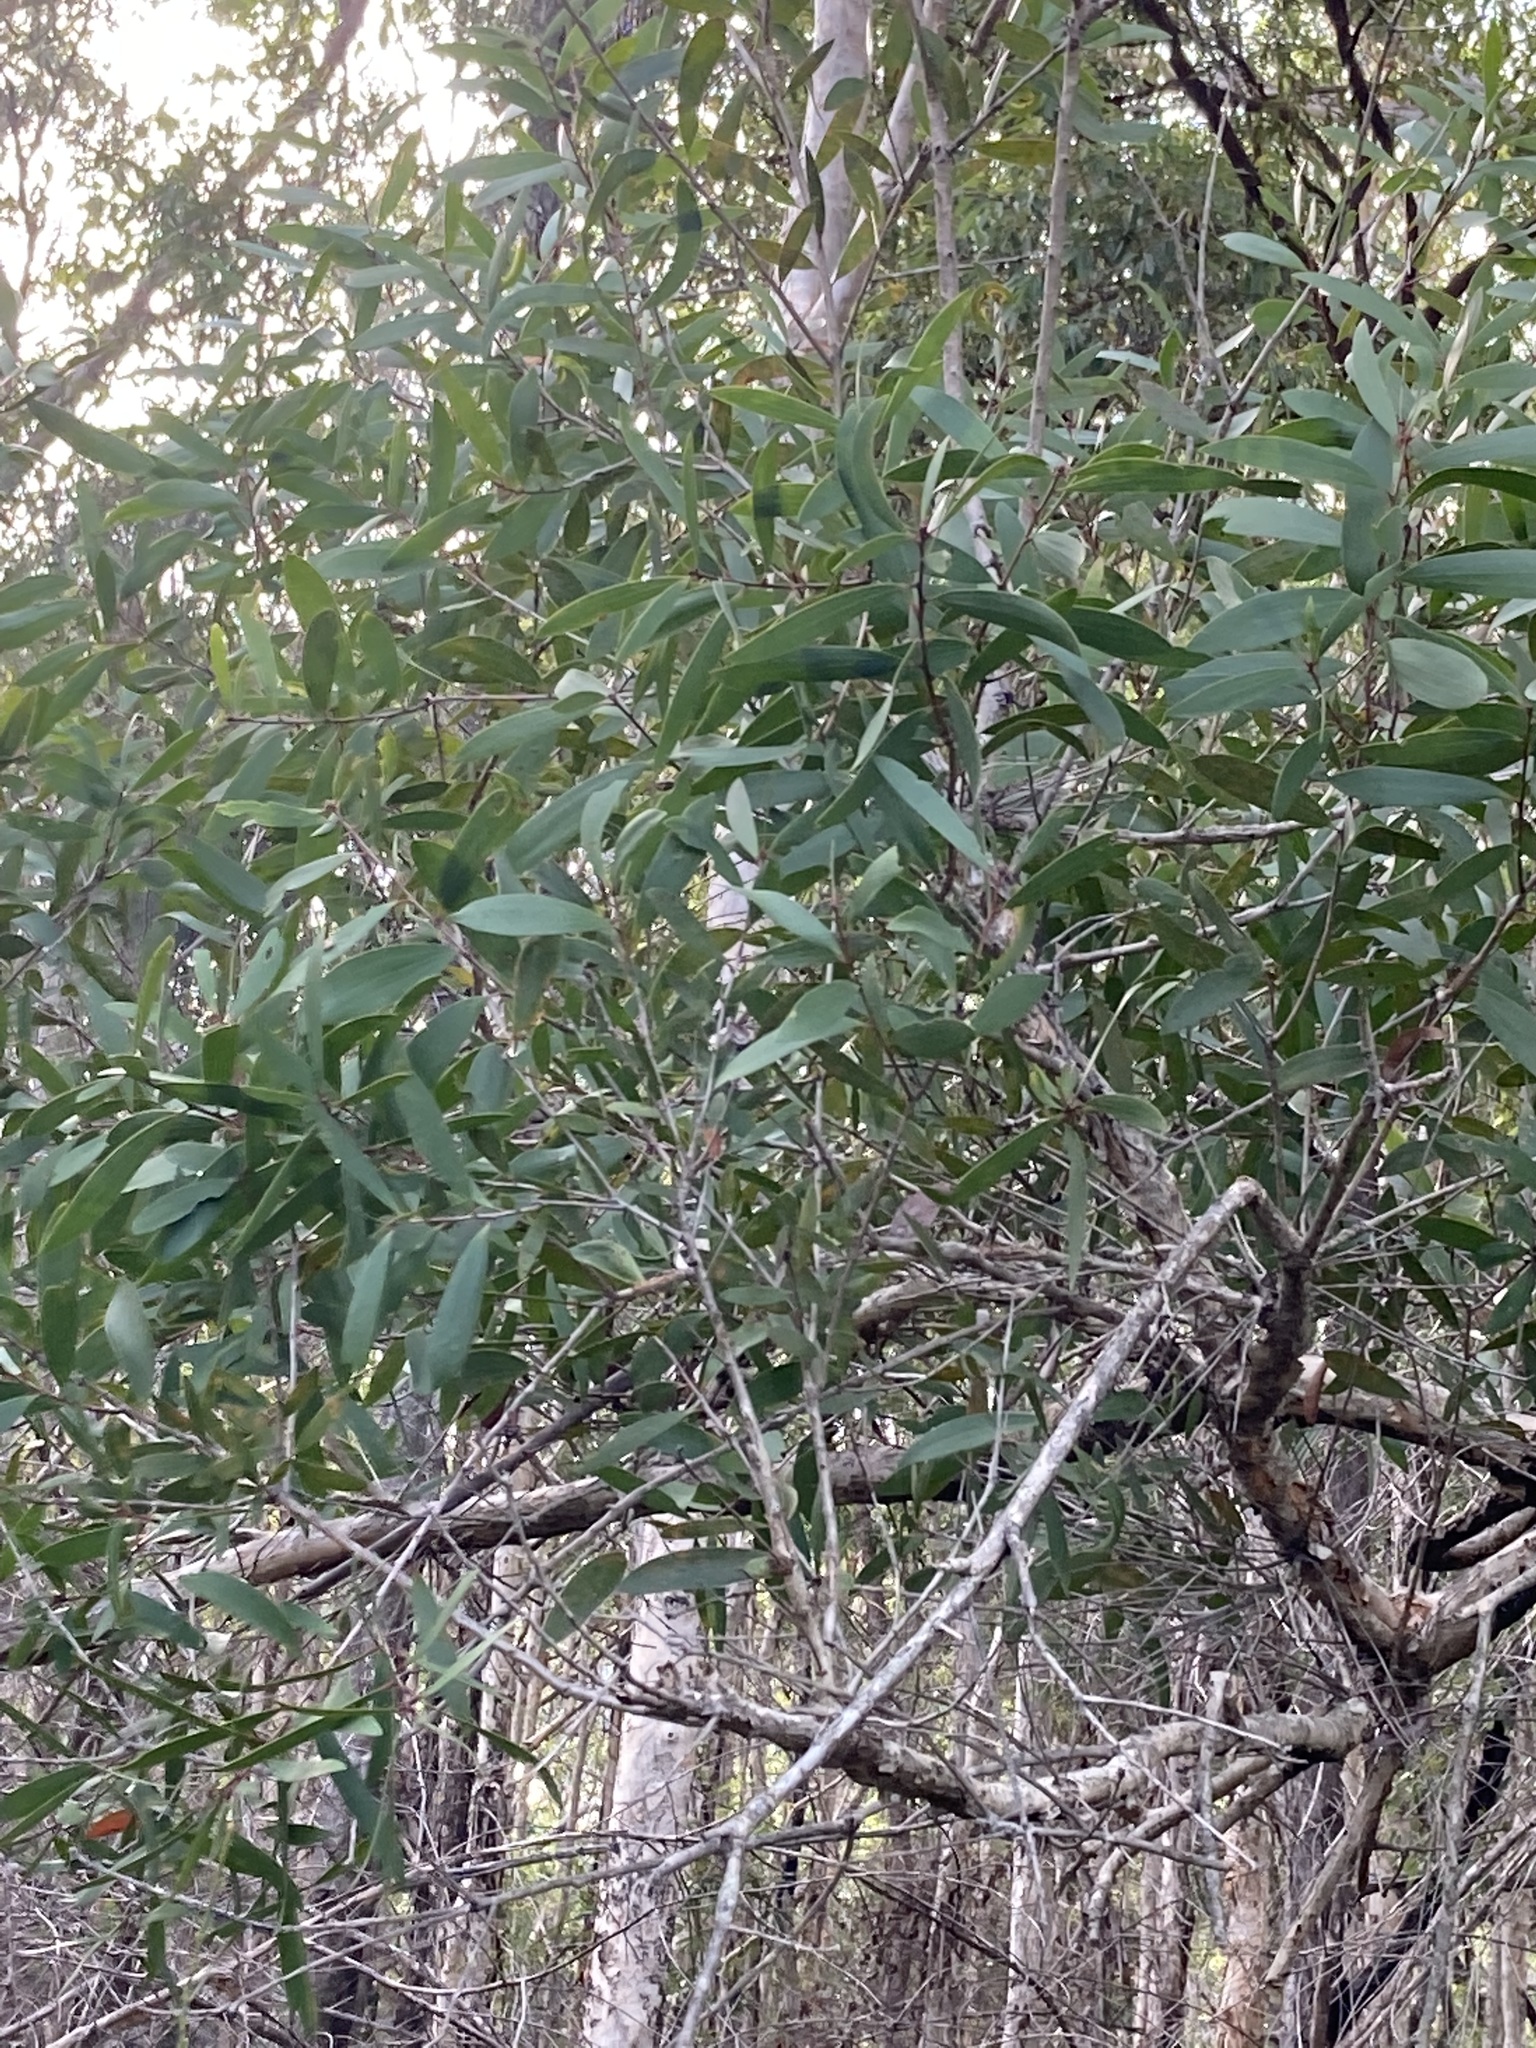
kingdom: Plantae
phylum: Tracheophyta
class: Magnoliopsida
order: Myrtales
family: Myrtaceae
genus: Melaleuca
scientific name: Melaleuca quinquenervia
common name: Punktree
